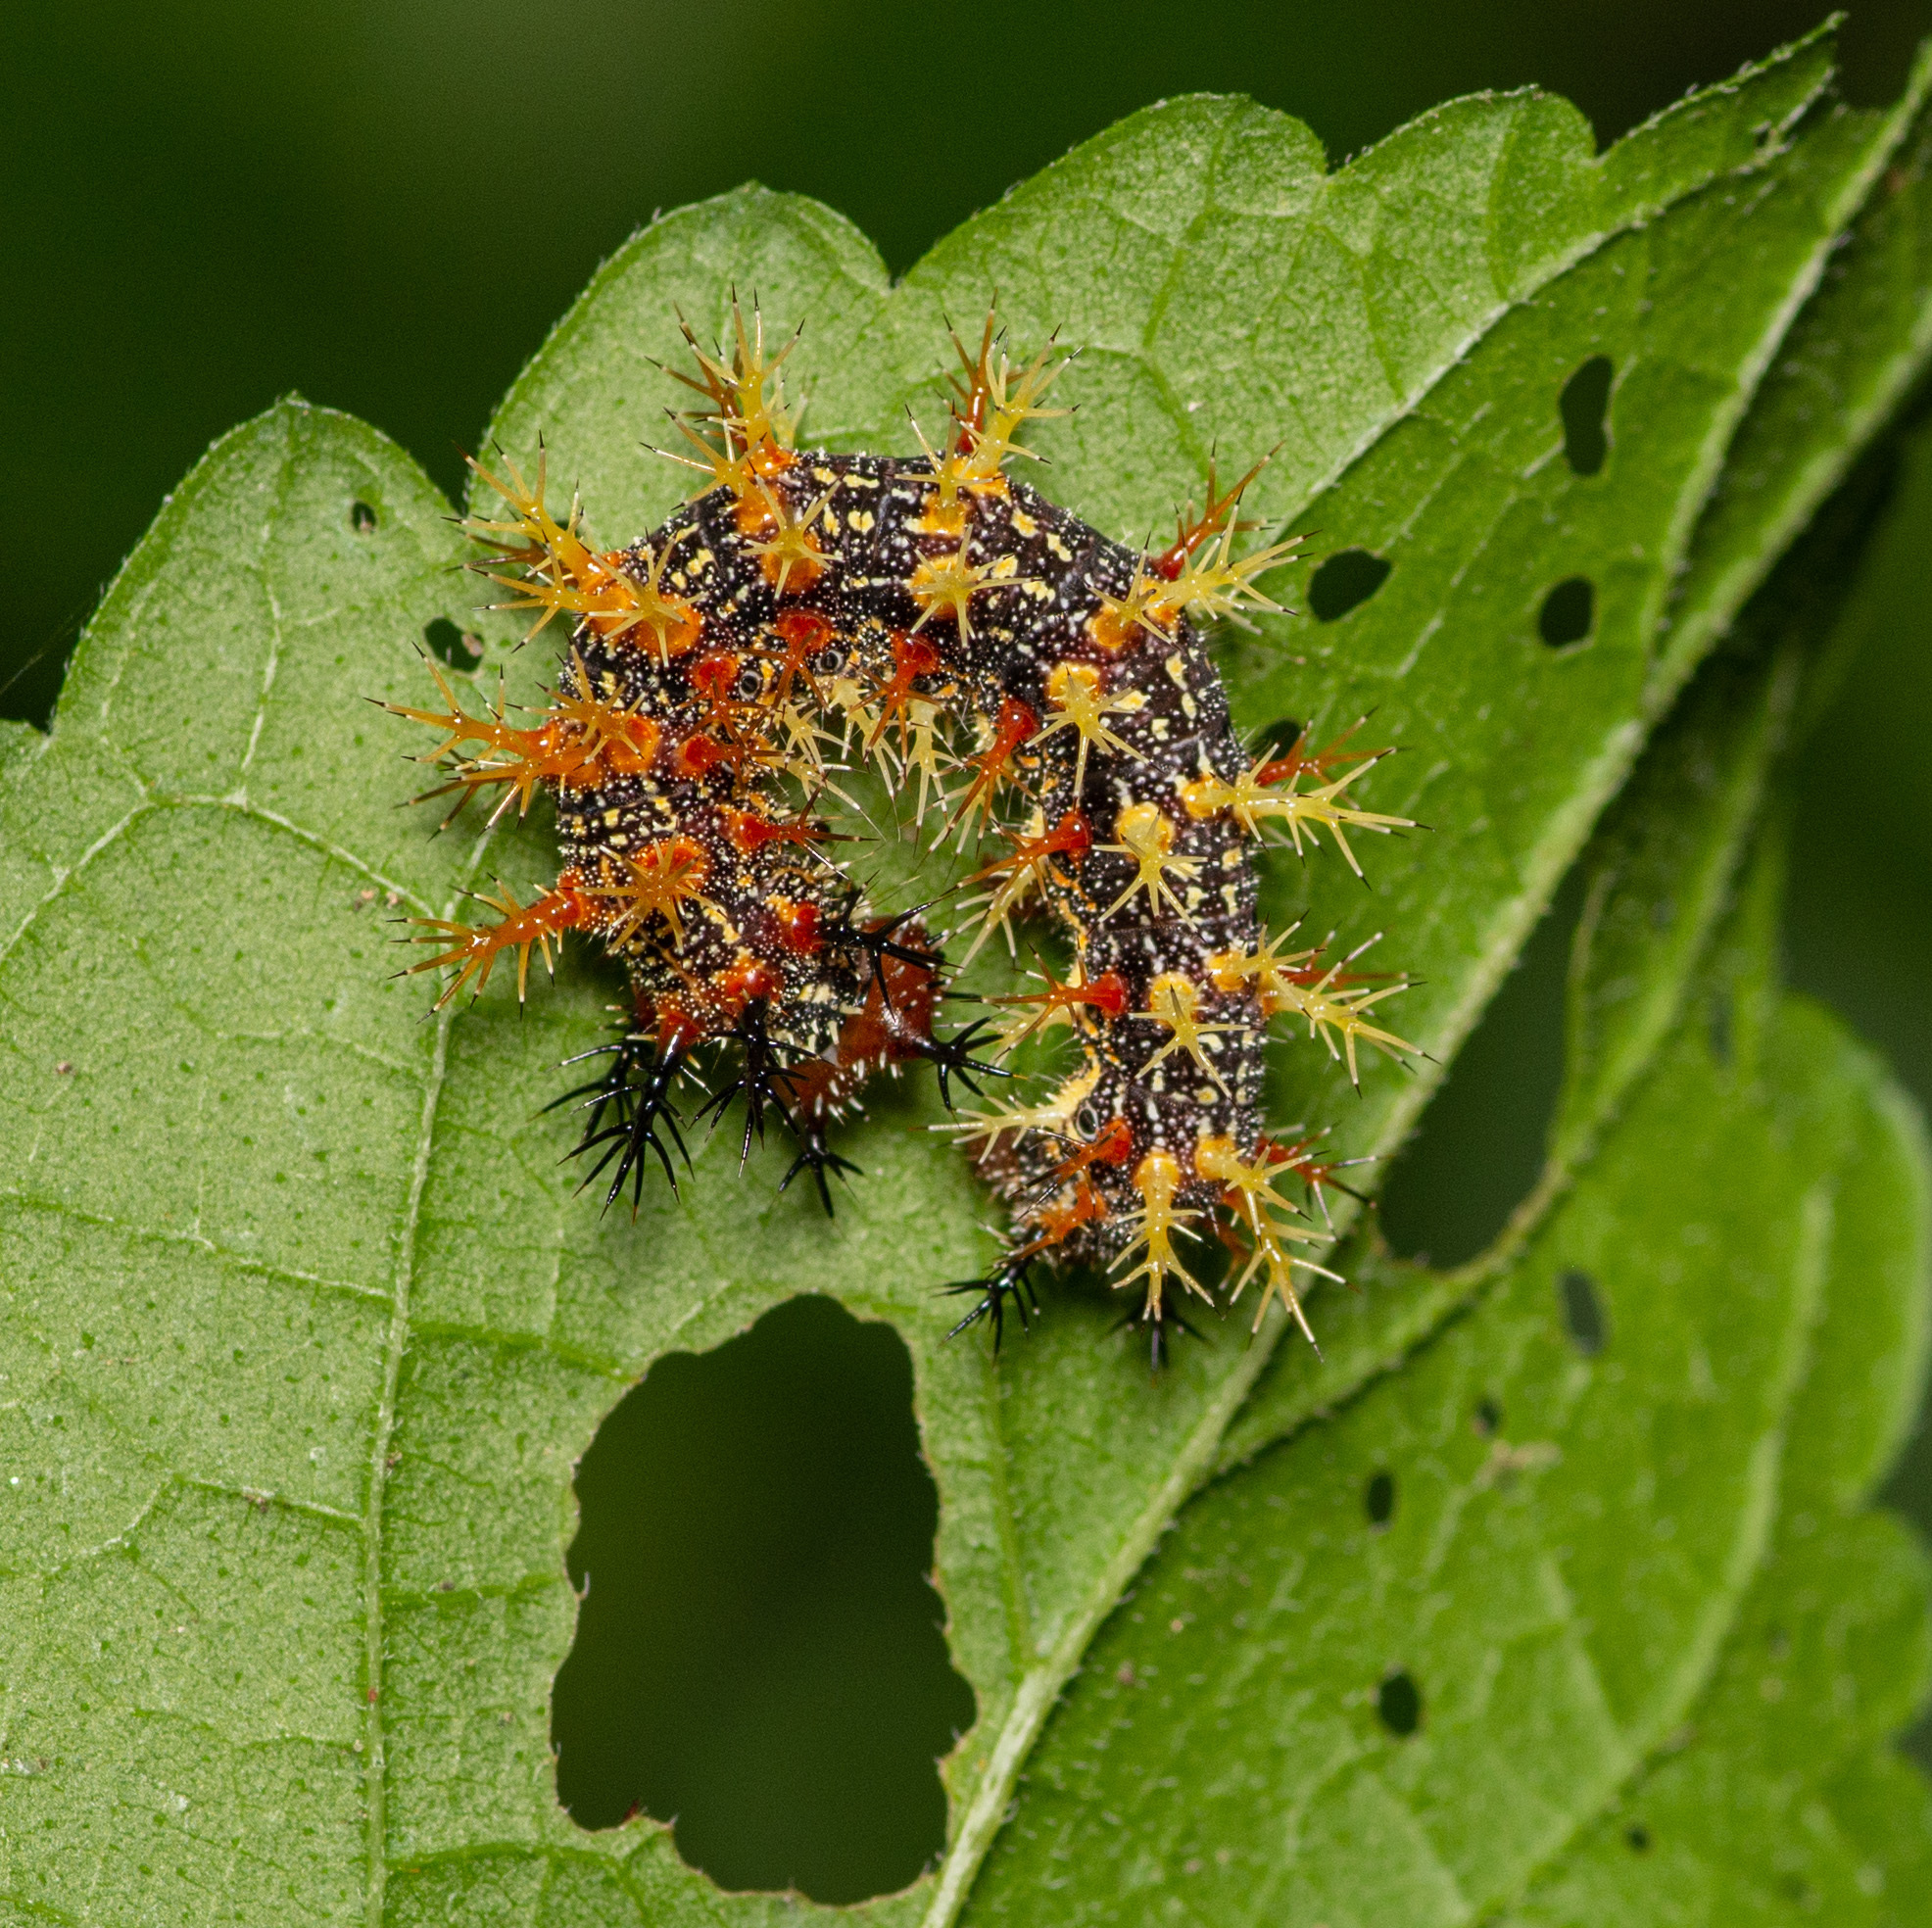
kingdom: Animalia
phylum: Arthropoda
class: Insecta
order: Lepidoptera
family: Nymphalidae
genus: Polygonia
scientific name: Polygonia interrogationis
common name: Question mark
